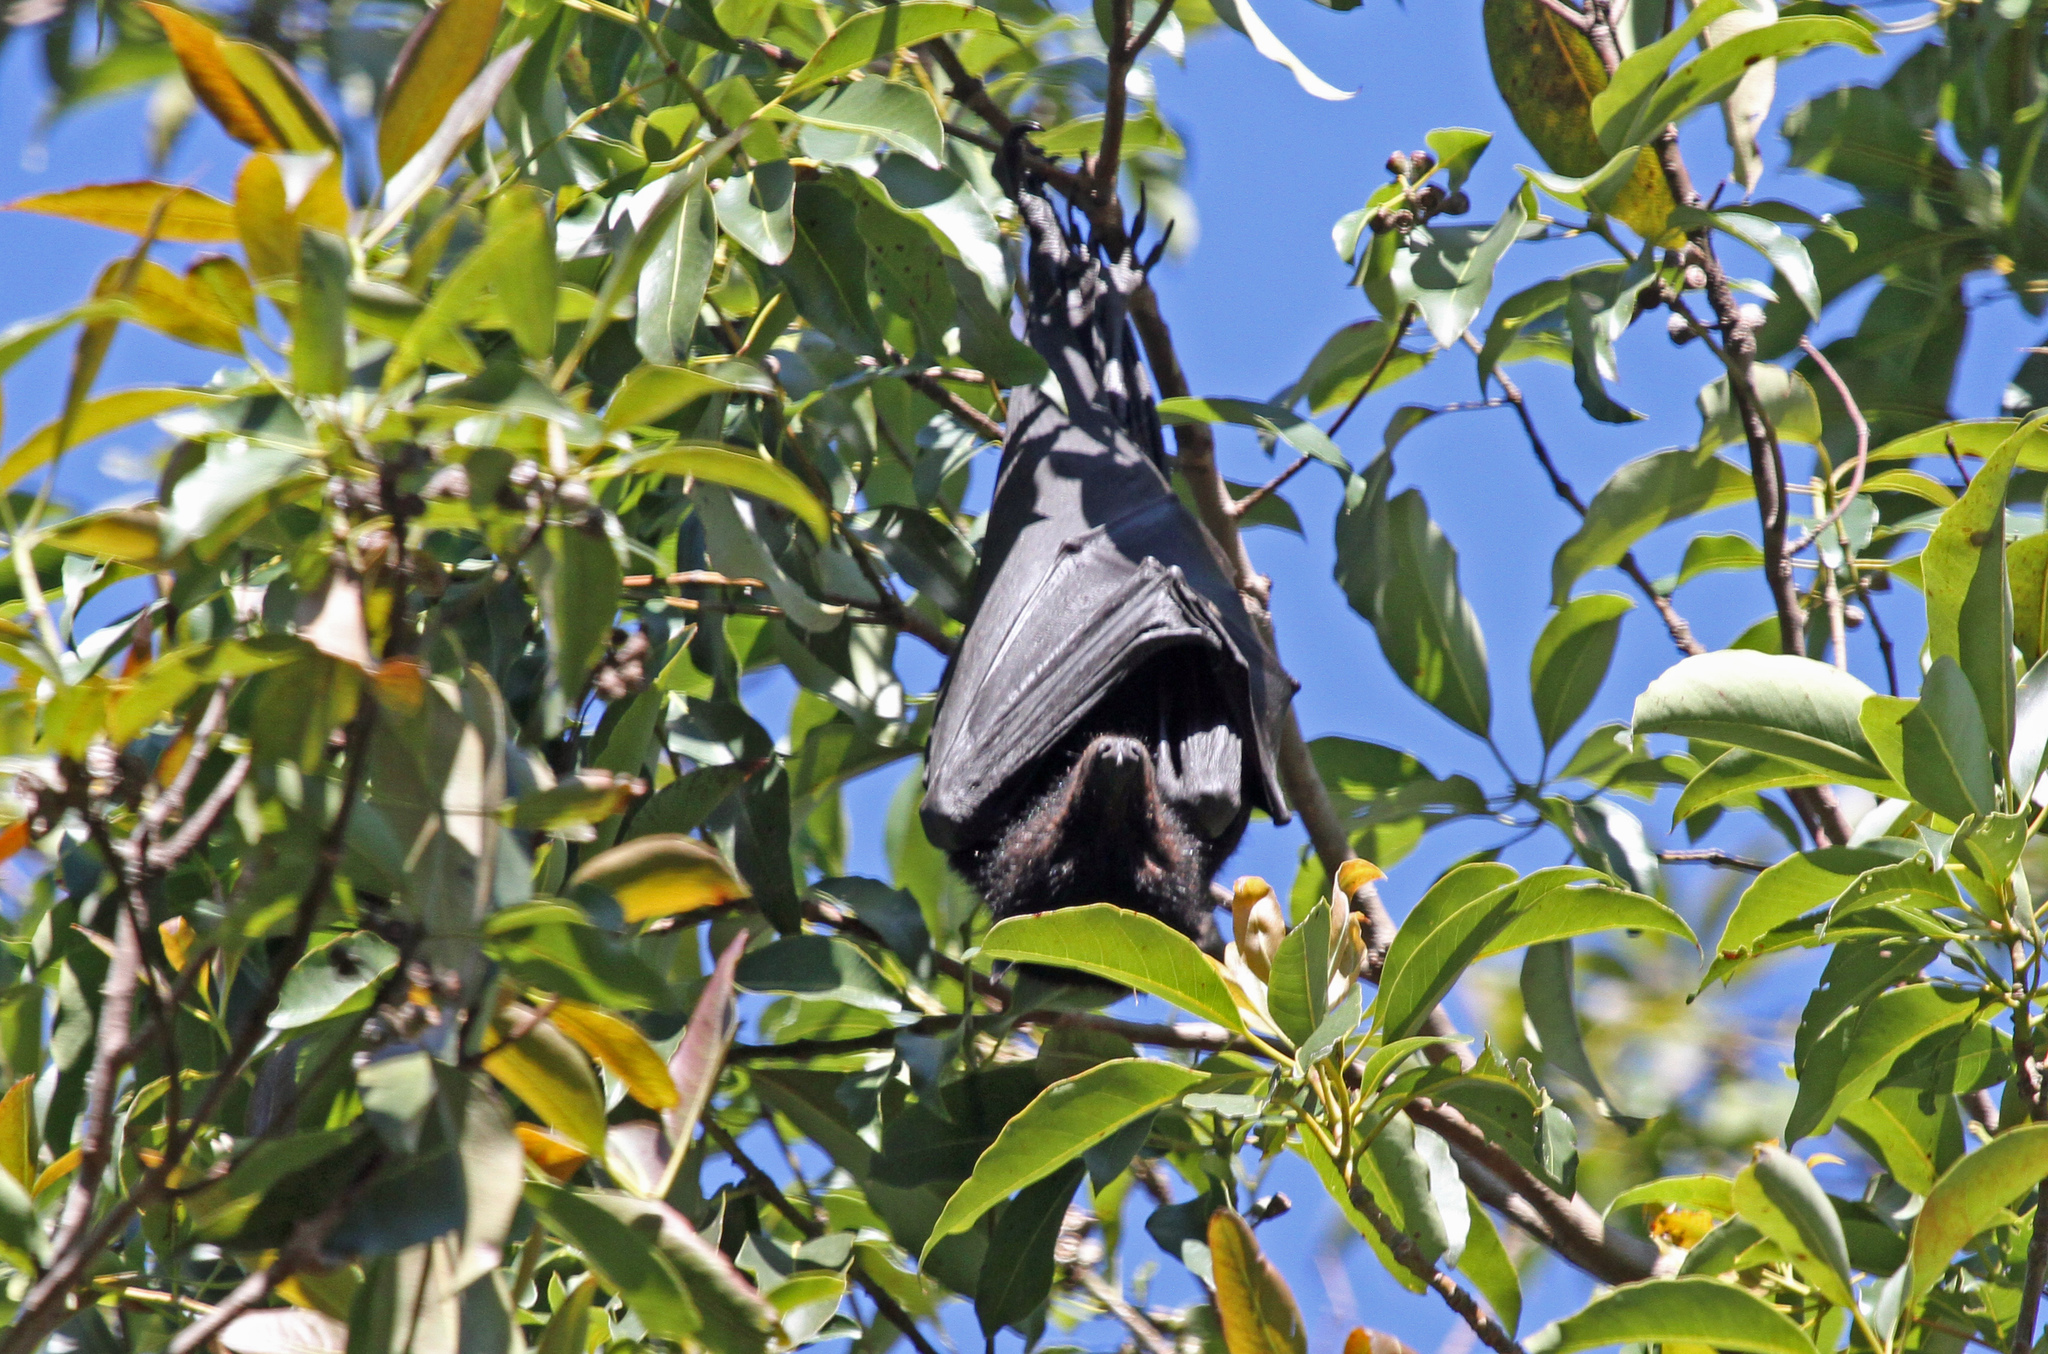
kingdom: Animalia
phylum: Chordata
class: Mammalia
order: Chiroptera
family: Pteropodidae
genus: Pteropus
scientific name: Pteropus alecto
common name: Black flying fox
